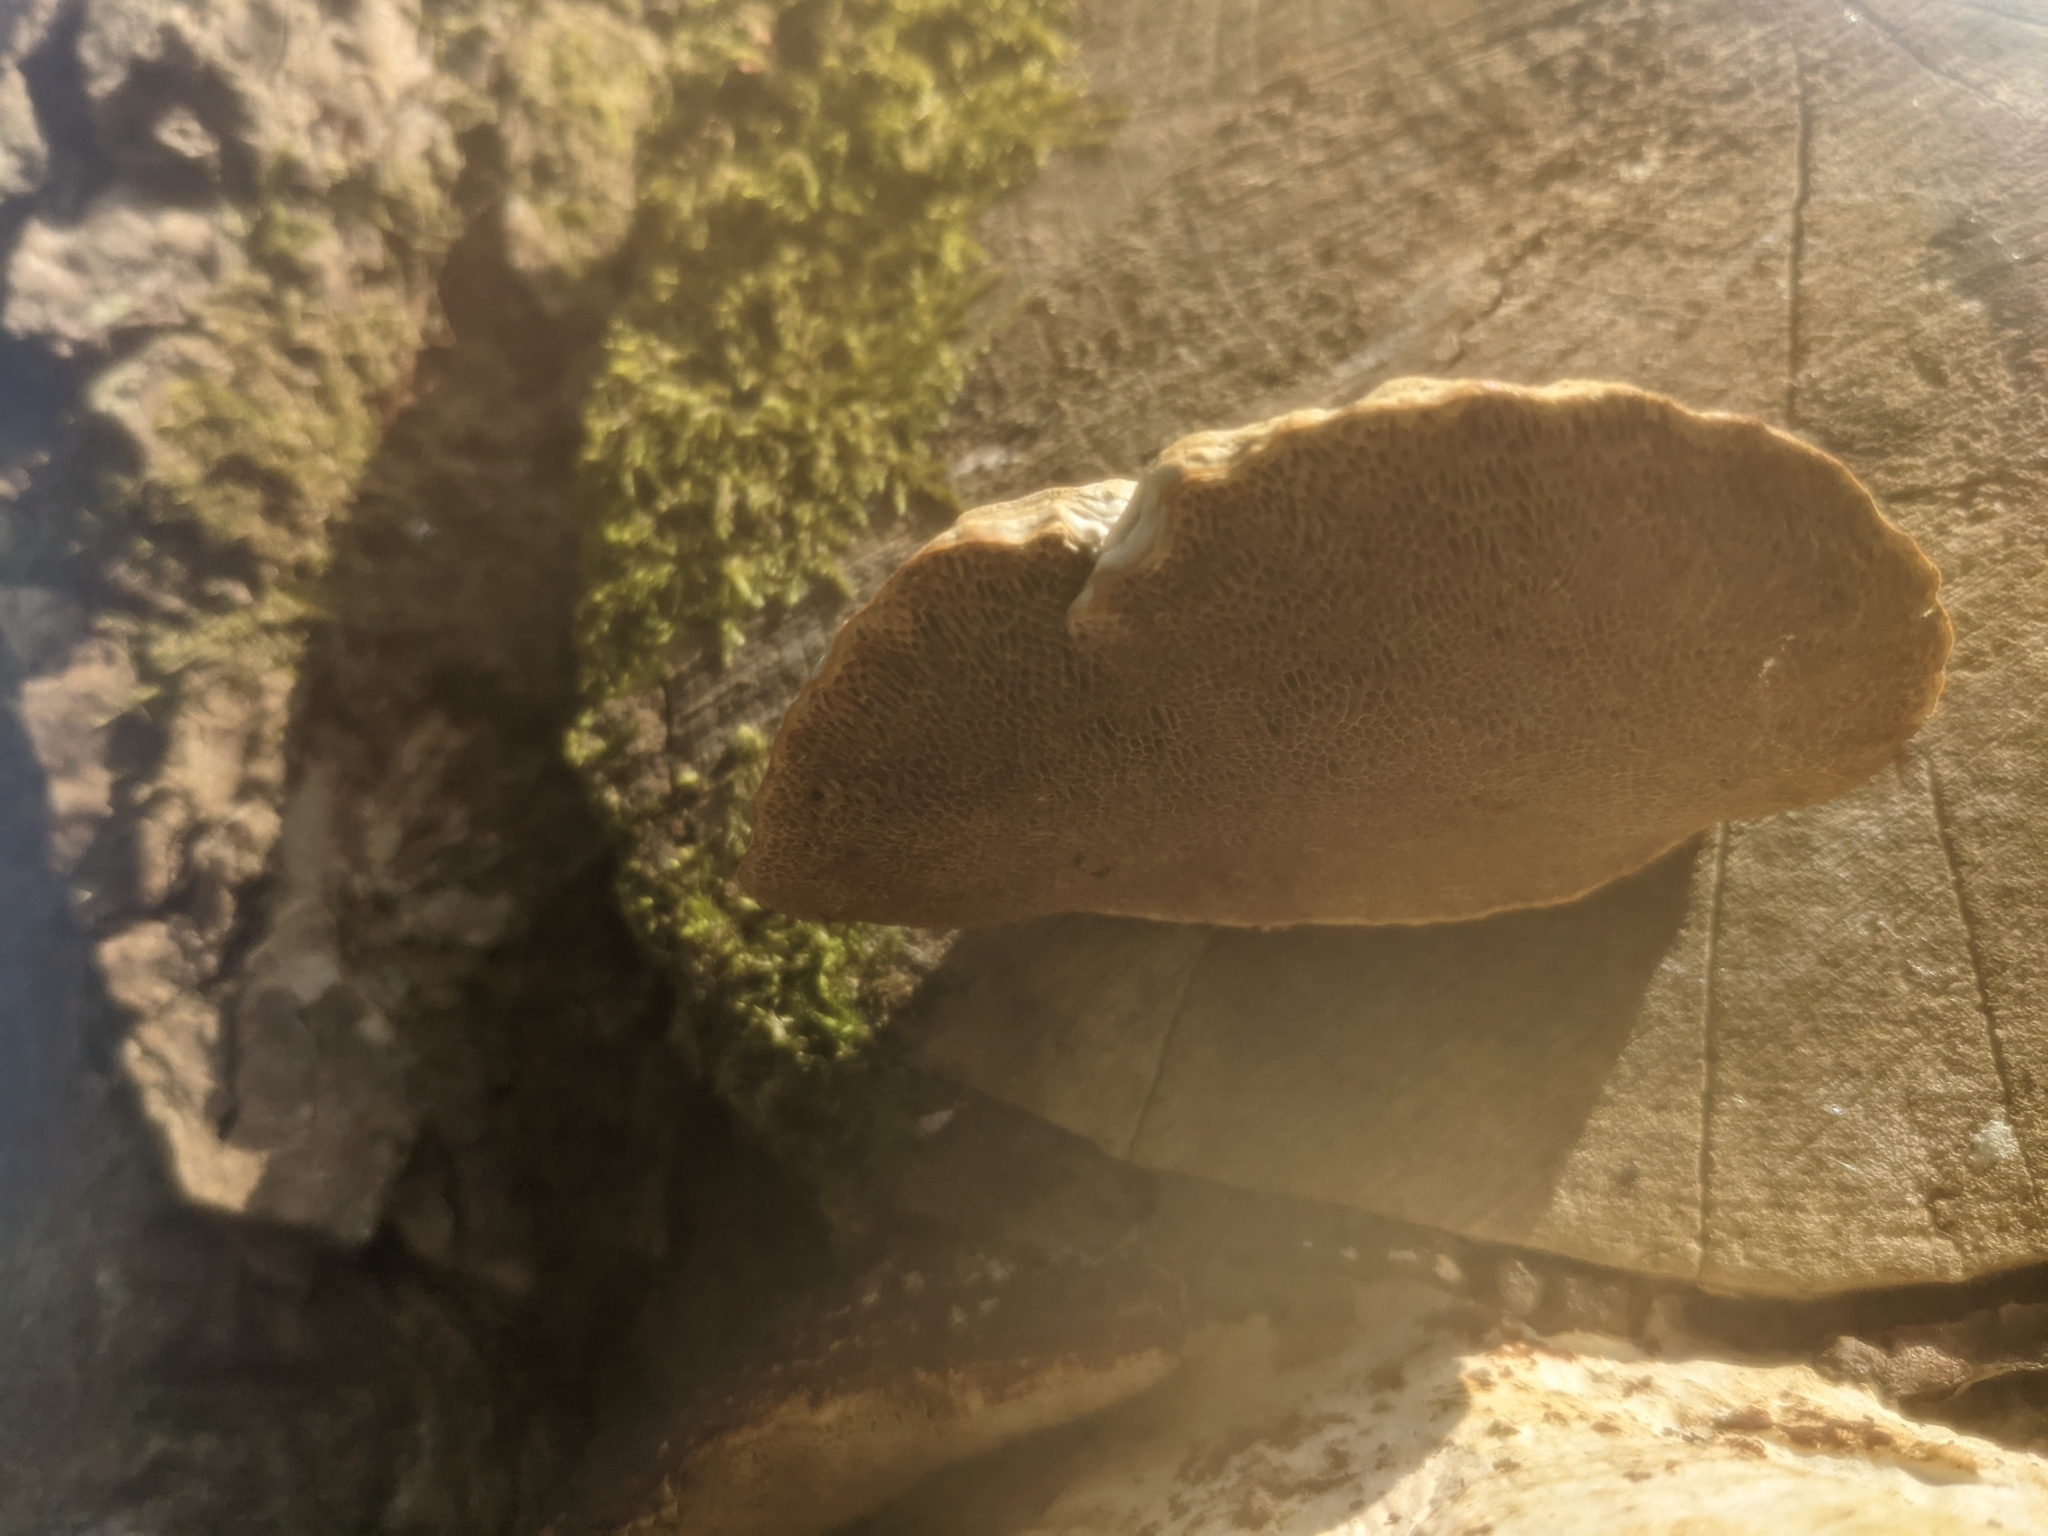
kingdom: Fungi
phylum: Basidiomycota
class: Agaricomycetes
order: Polyporales
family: Polyporaceae
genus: Daedaleopsis
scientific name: Daedaleopsis confragosa
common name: Blushing bracket
